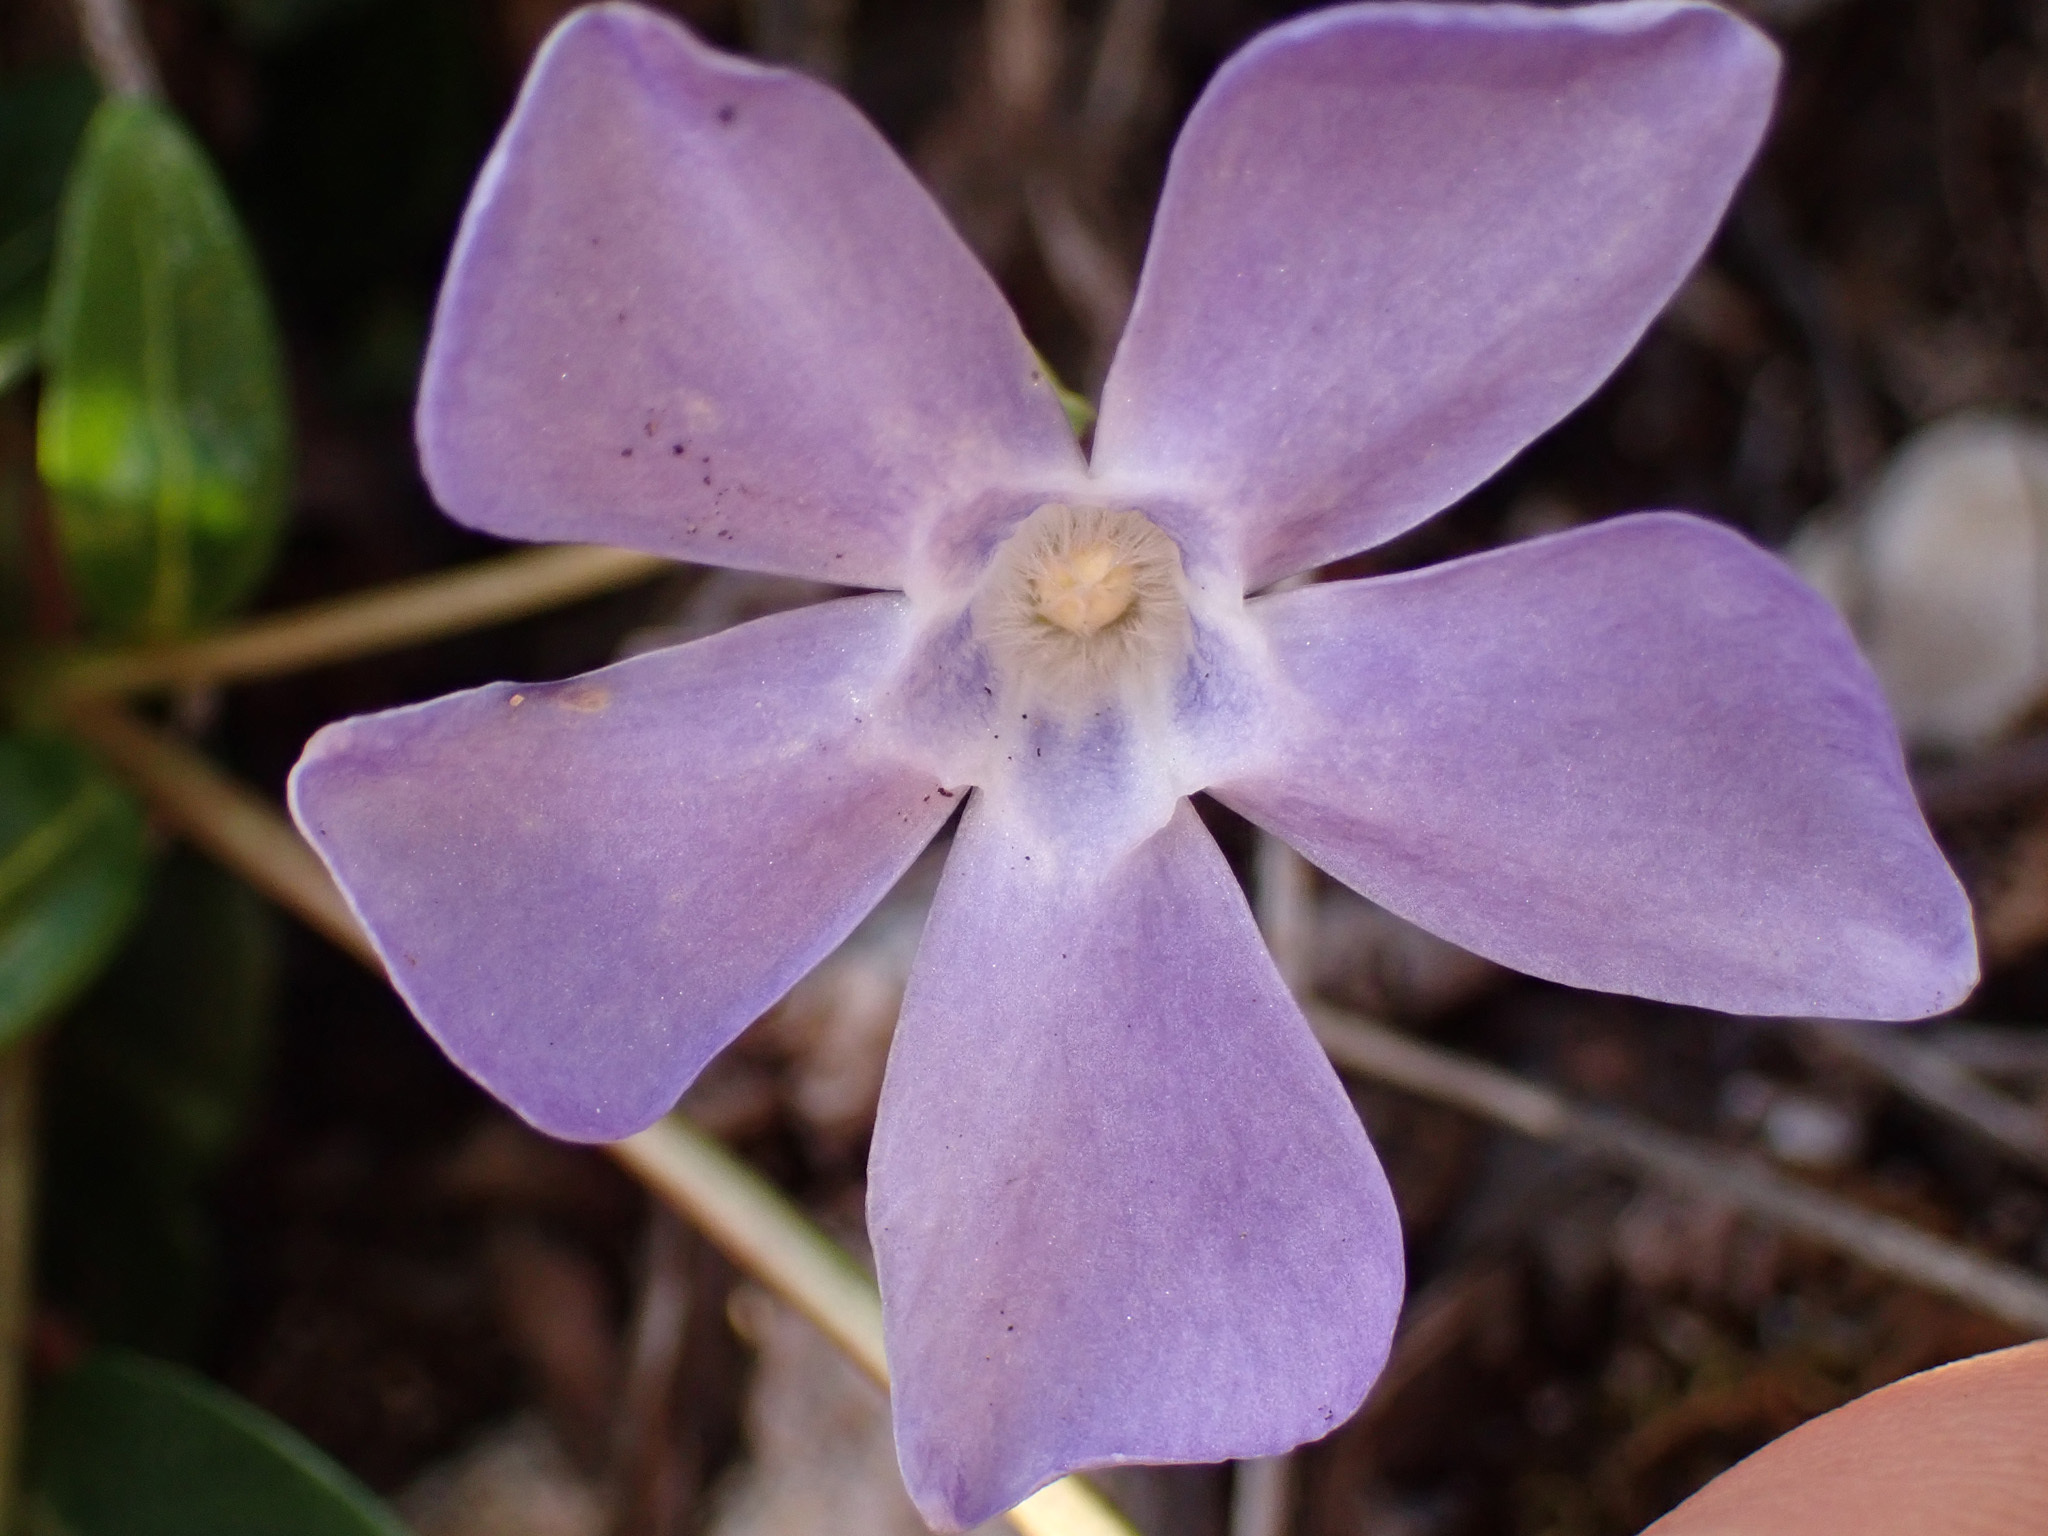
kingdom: Plantae
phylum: Tracheophyta
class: Magnoliopsida
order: Gentianales
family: Apocynaceae
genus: Vinca
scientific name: Vinca minor
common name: Lesser periwinkle
